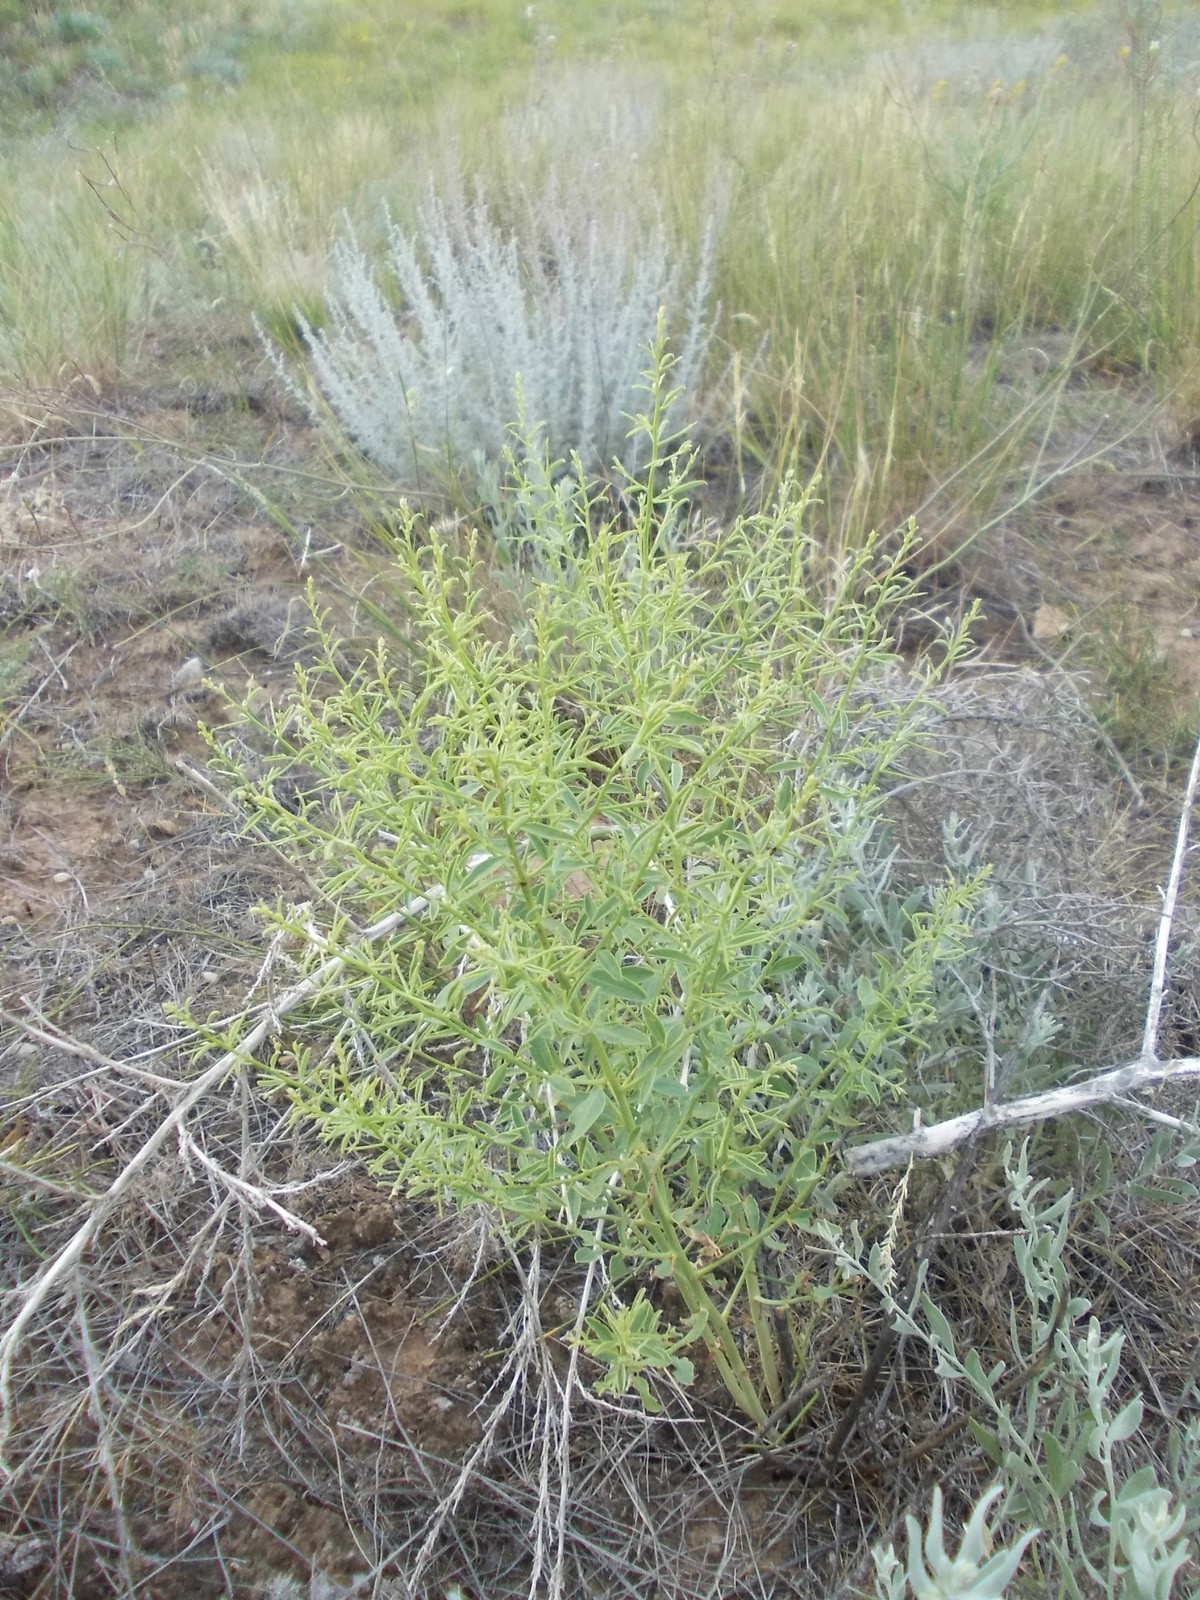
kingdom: Plantae
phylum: Tracheophyta
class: Magnoliopsida
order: Fabales
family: Fabaceae
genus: Alhagi
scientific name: Alhagi pseudalhagi
